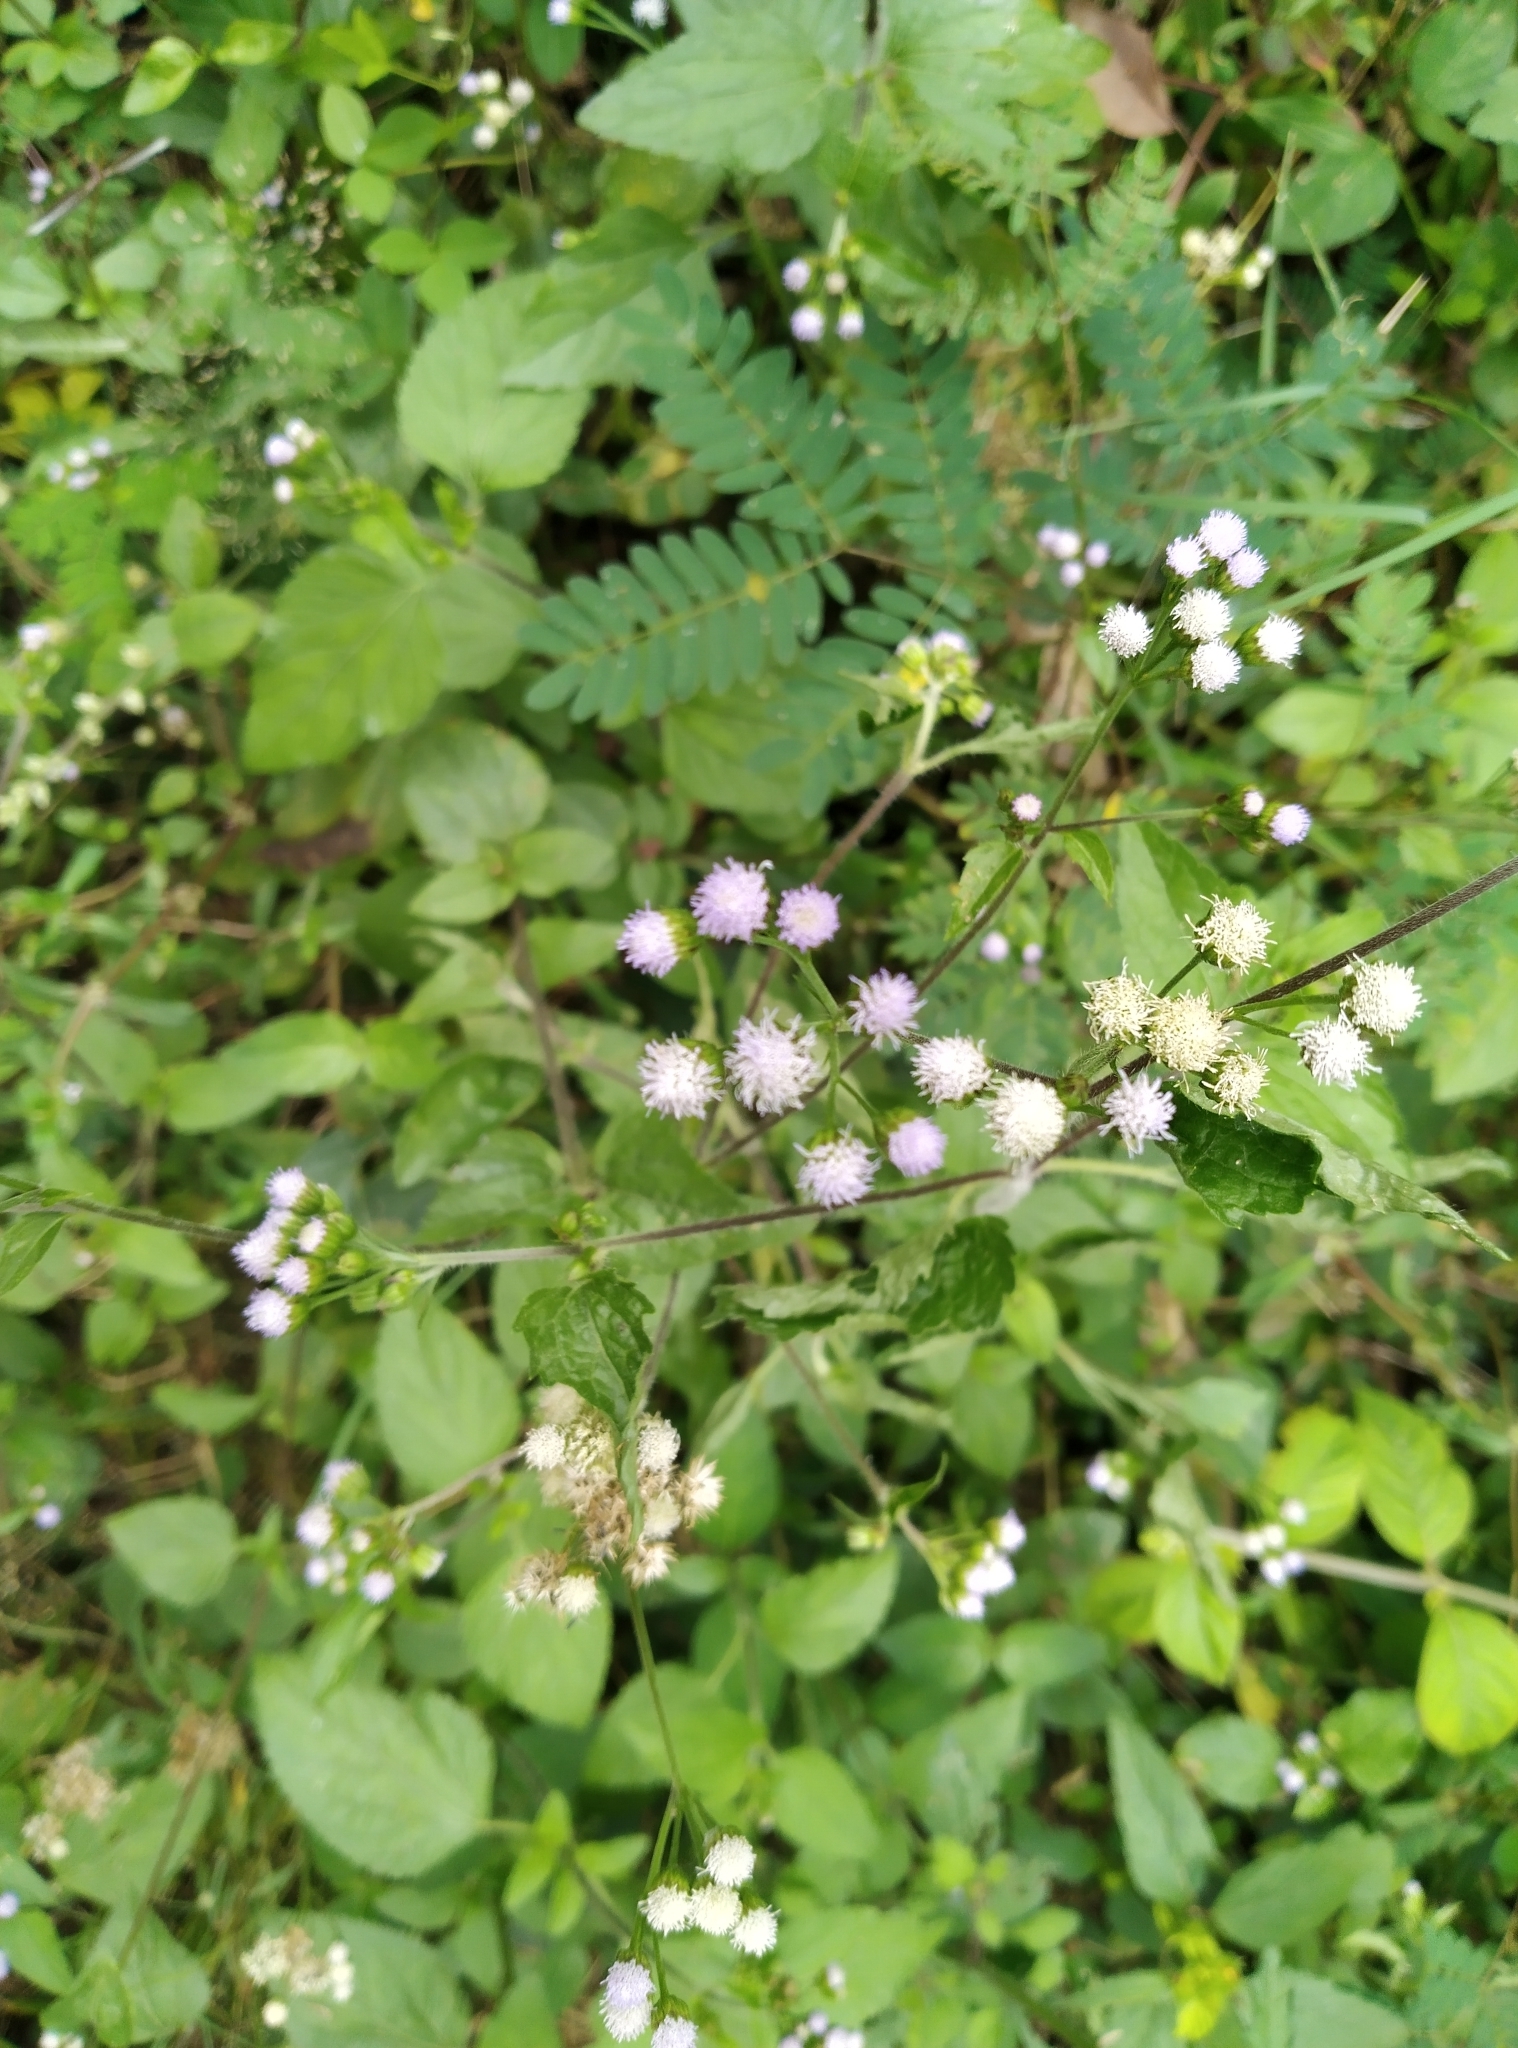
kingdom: Plantae
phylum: Tracheophyta
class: Magnoliopsida
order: Asterales
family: Asteraceae
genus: Ageratum
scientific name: Ageratum conyzoides
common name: Tropical whiteweed
